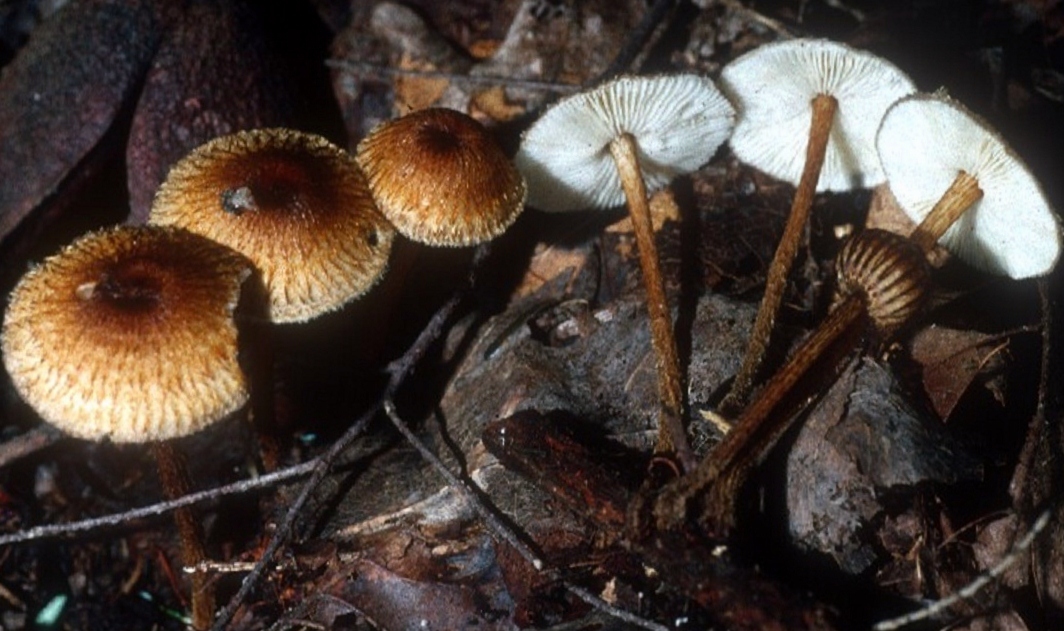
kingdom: Fungi
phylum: Basidiomycota
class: Agaricomycetes
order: Agaricales
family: Tricholomataceae
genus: Collybia
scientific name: Collybia zonata
